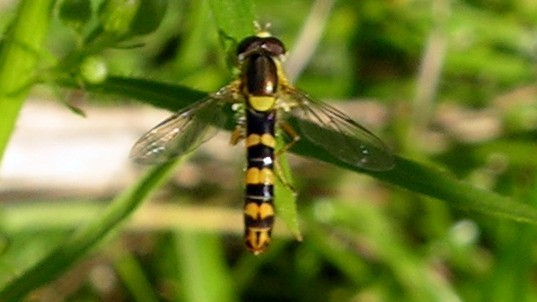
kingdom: Animalia
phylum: Arthropoda
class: Insecta
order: Diptera
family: Syrphidae
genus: Sphaerophoria
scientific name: Sphaerophoria scripta
